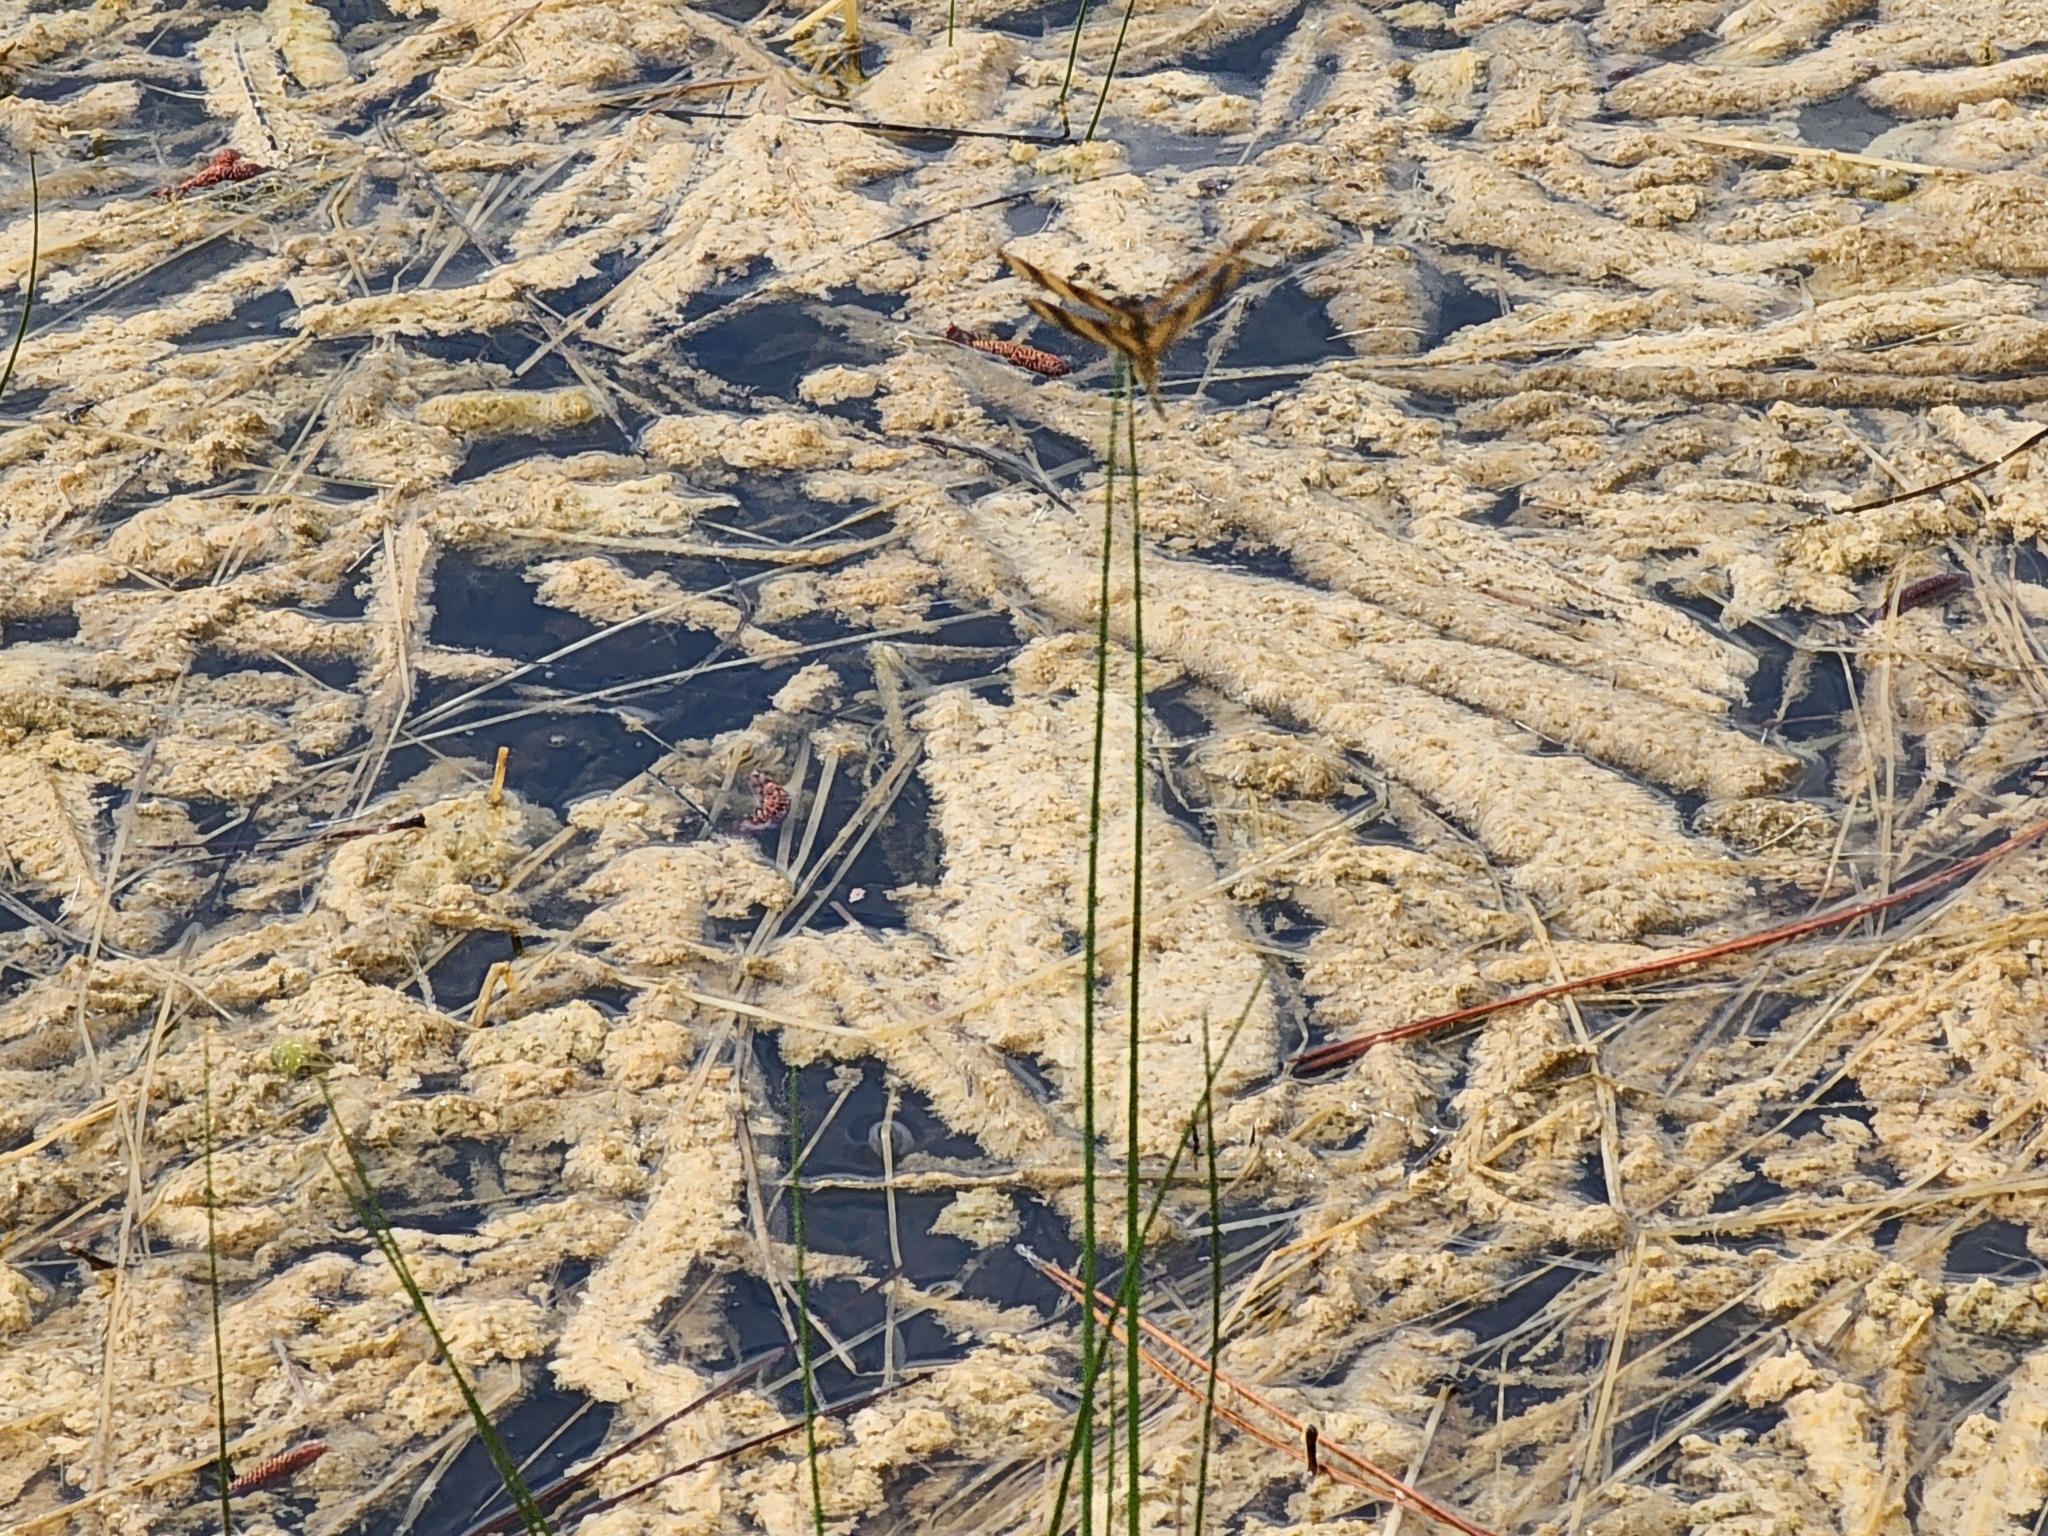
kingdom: Animalia
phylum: Arthropoda
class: Insecta
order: Odonata
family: Libellulidae
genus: Celithemis
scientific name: Celithemis eponina
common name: Halloween pennant
